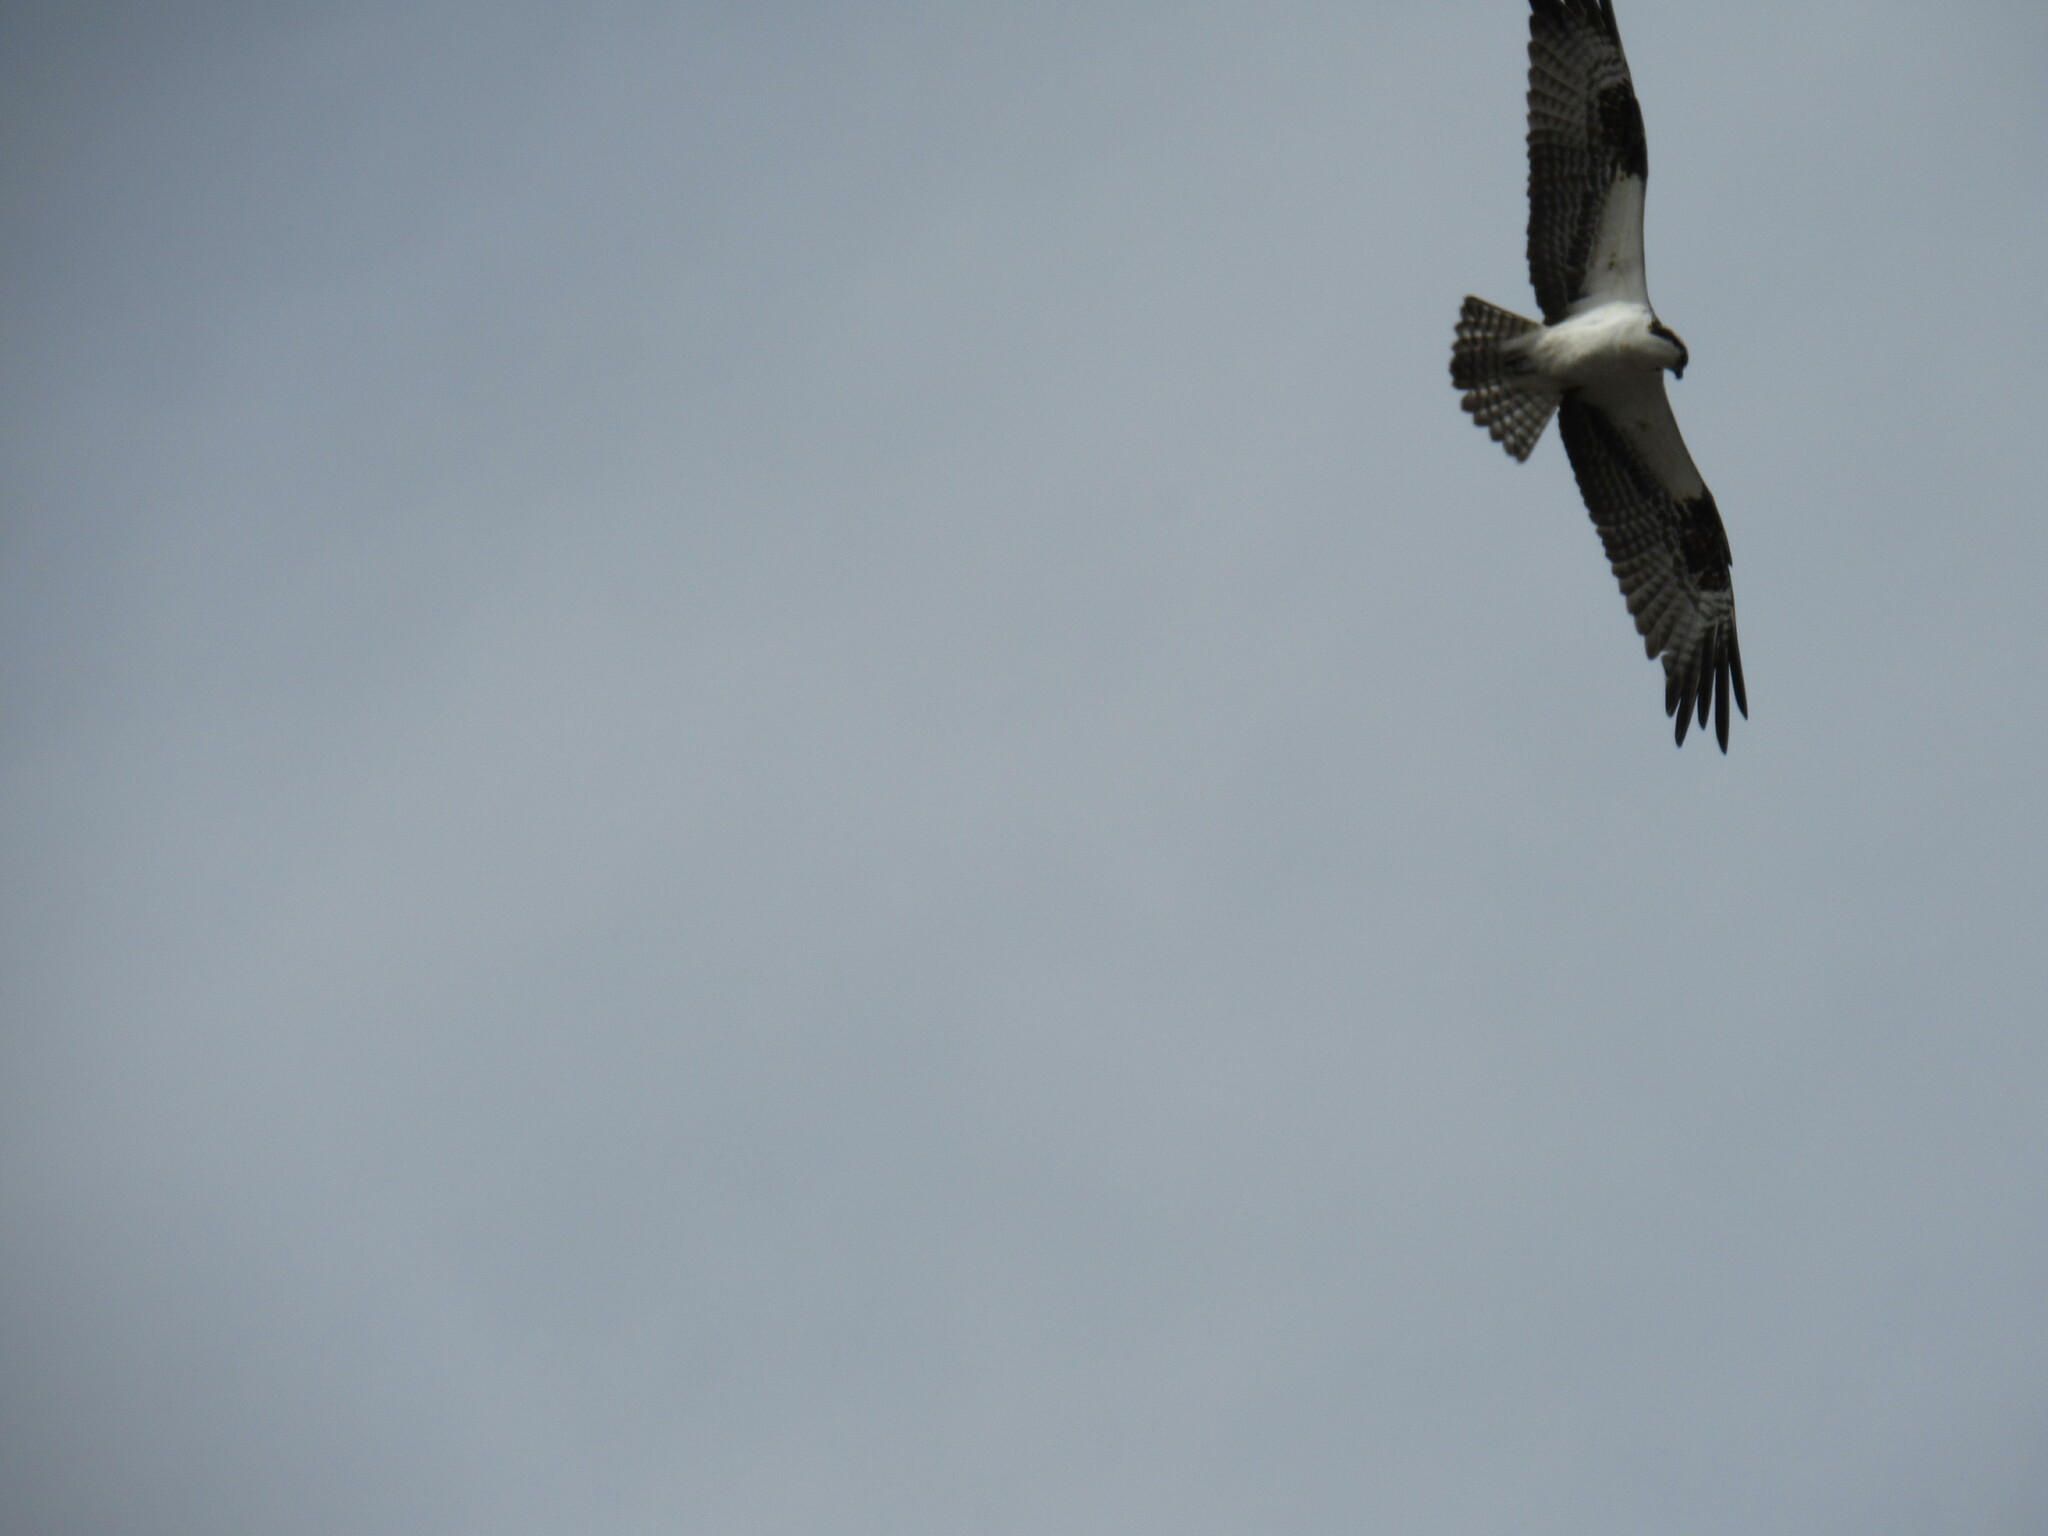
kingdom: Animalia
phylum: Chordata
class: Aves
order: Accipitriformes
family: Pandionidae
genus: Pandion
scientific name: Pandion haliaetus
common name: Osprey
